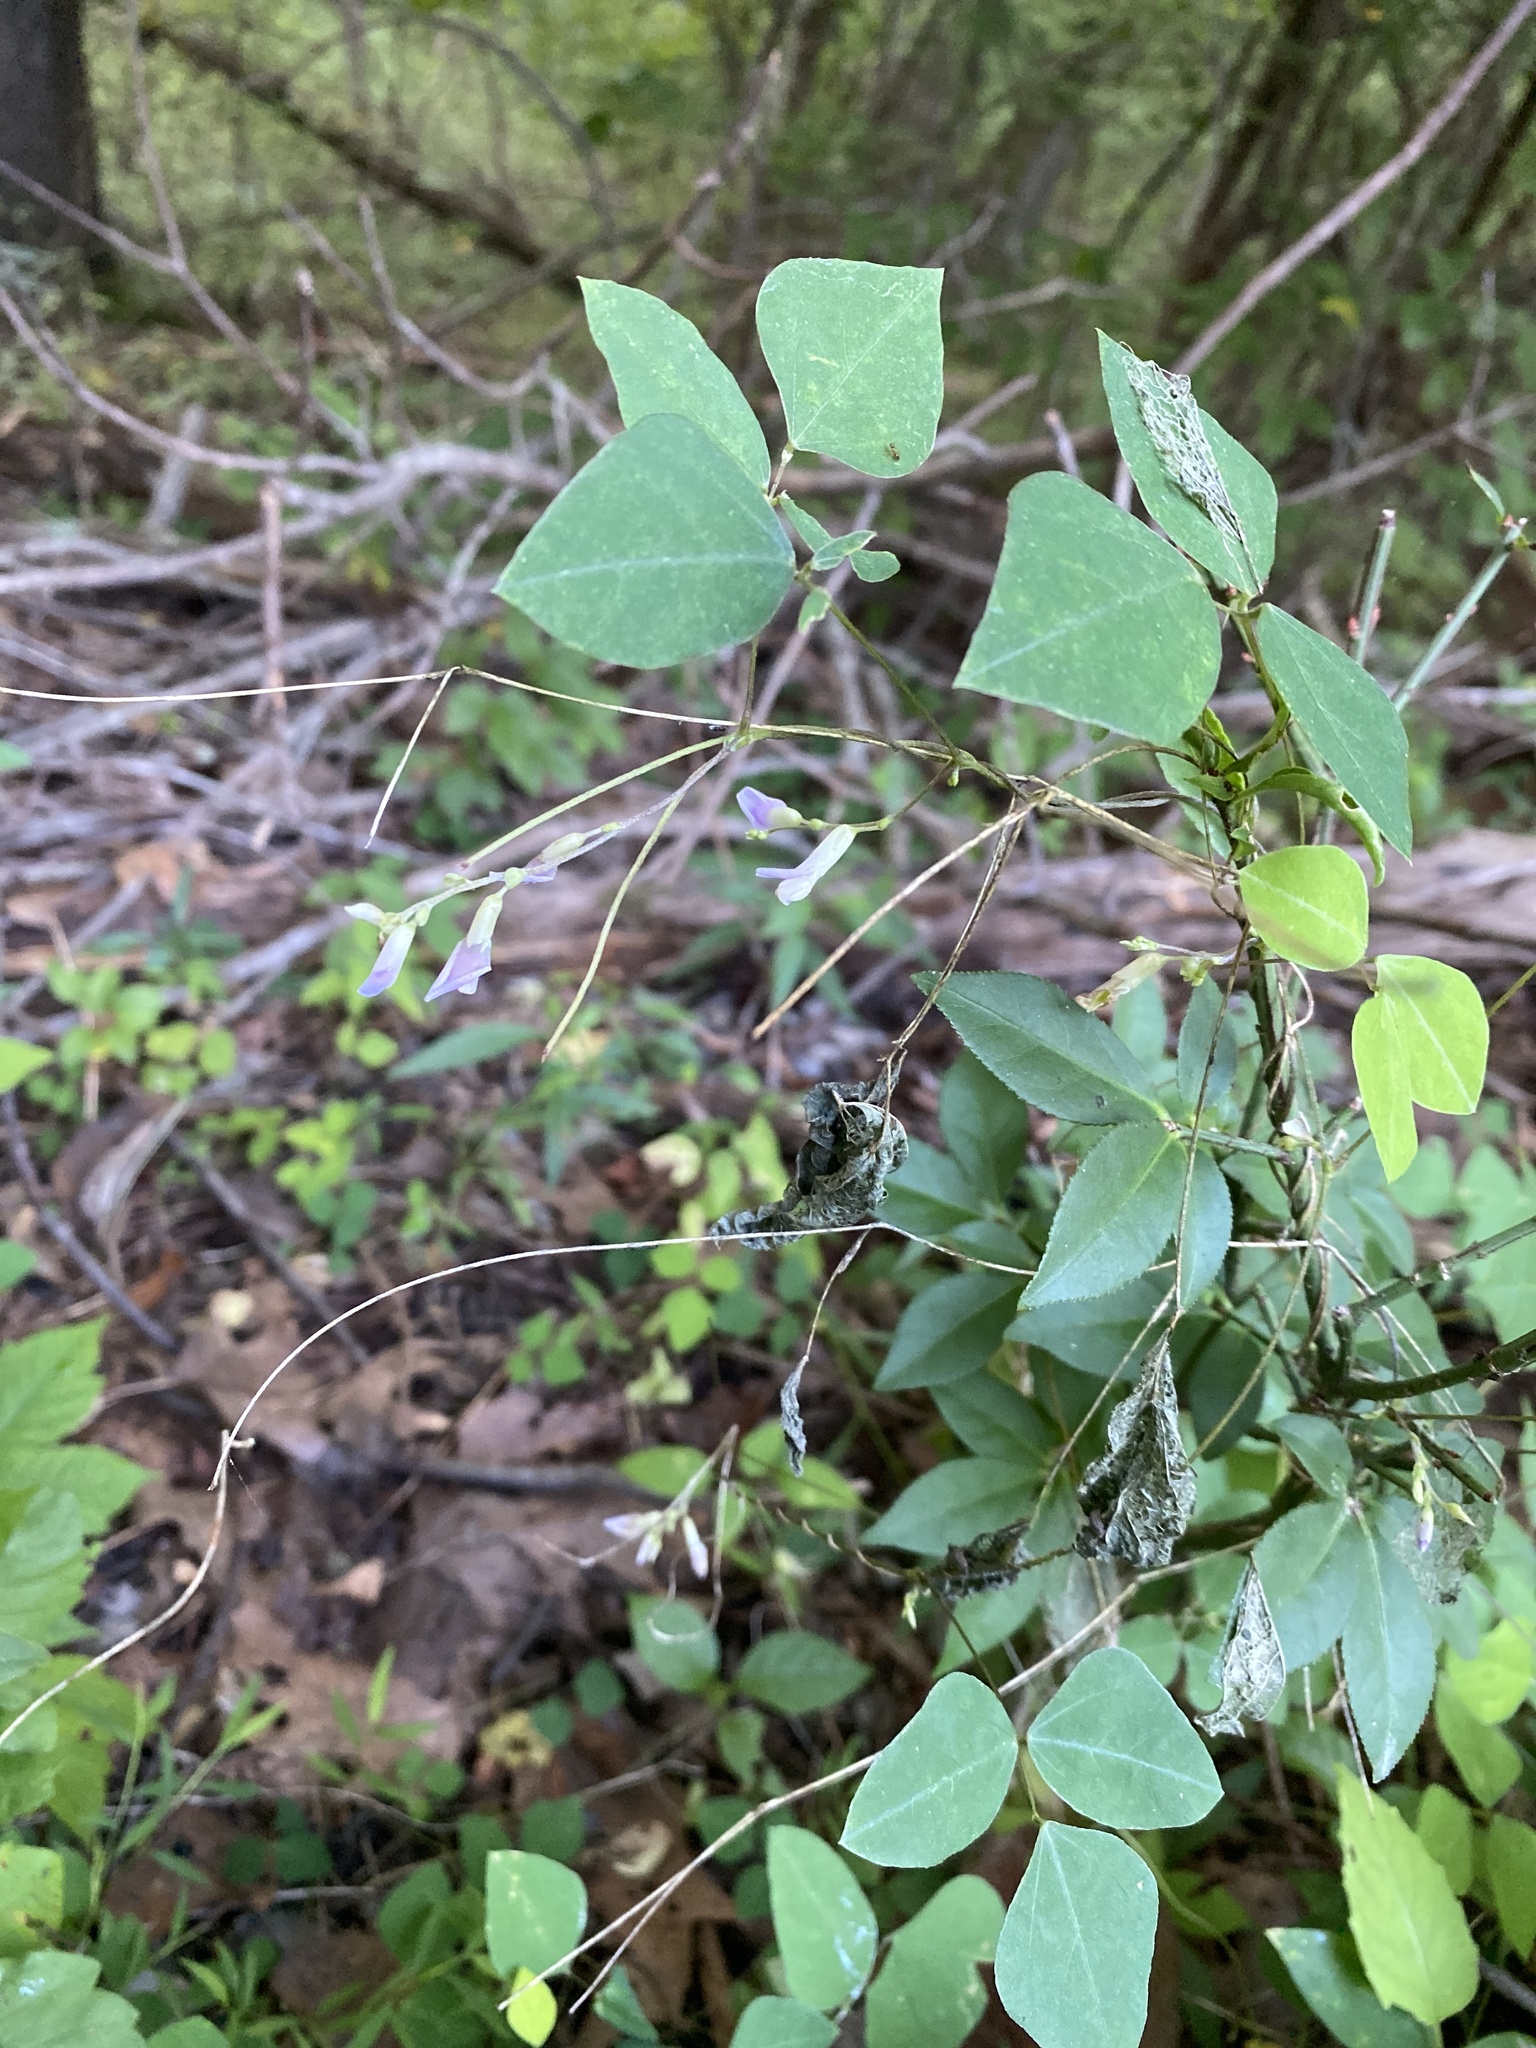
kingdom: Plantae
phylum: Tracheophyta
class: Magnoliopsida
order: Fabales
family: Fabaceae
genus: Amphicarpaea
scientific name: Amphicarpaea bracteata
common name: American hog peanut
